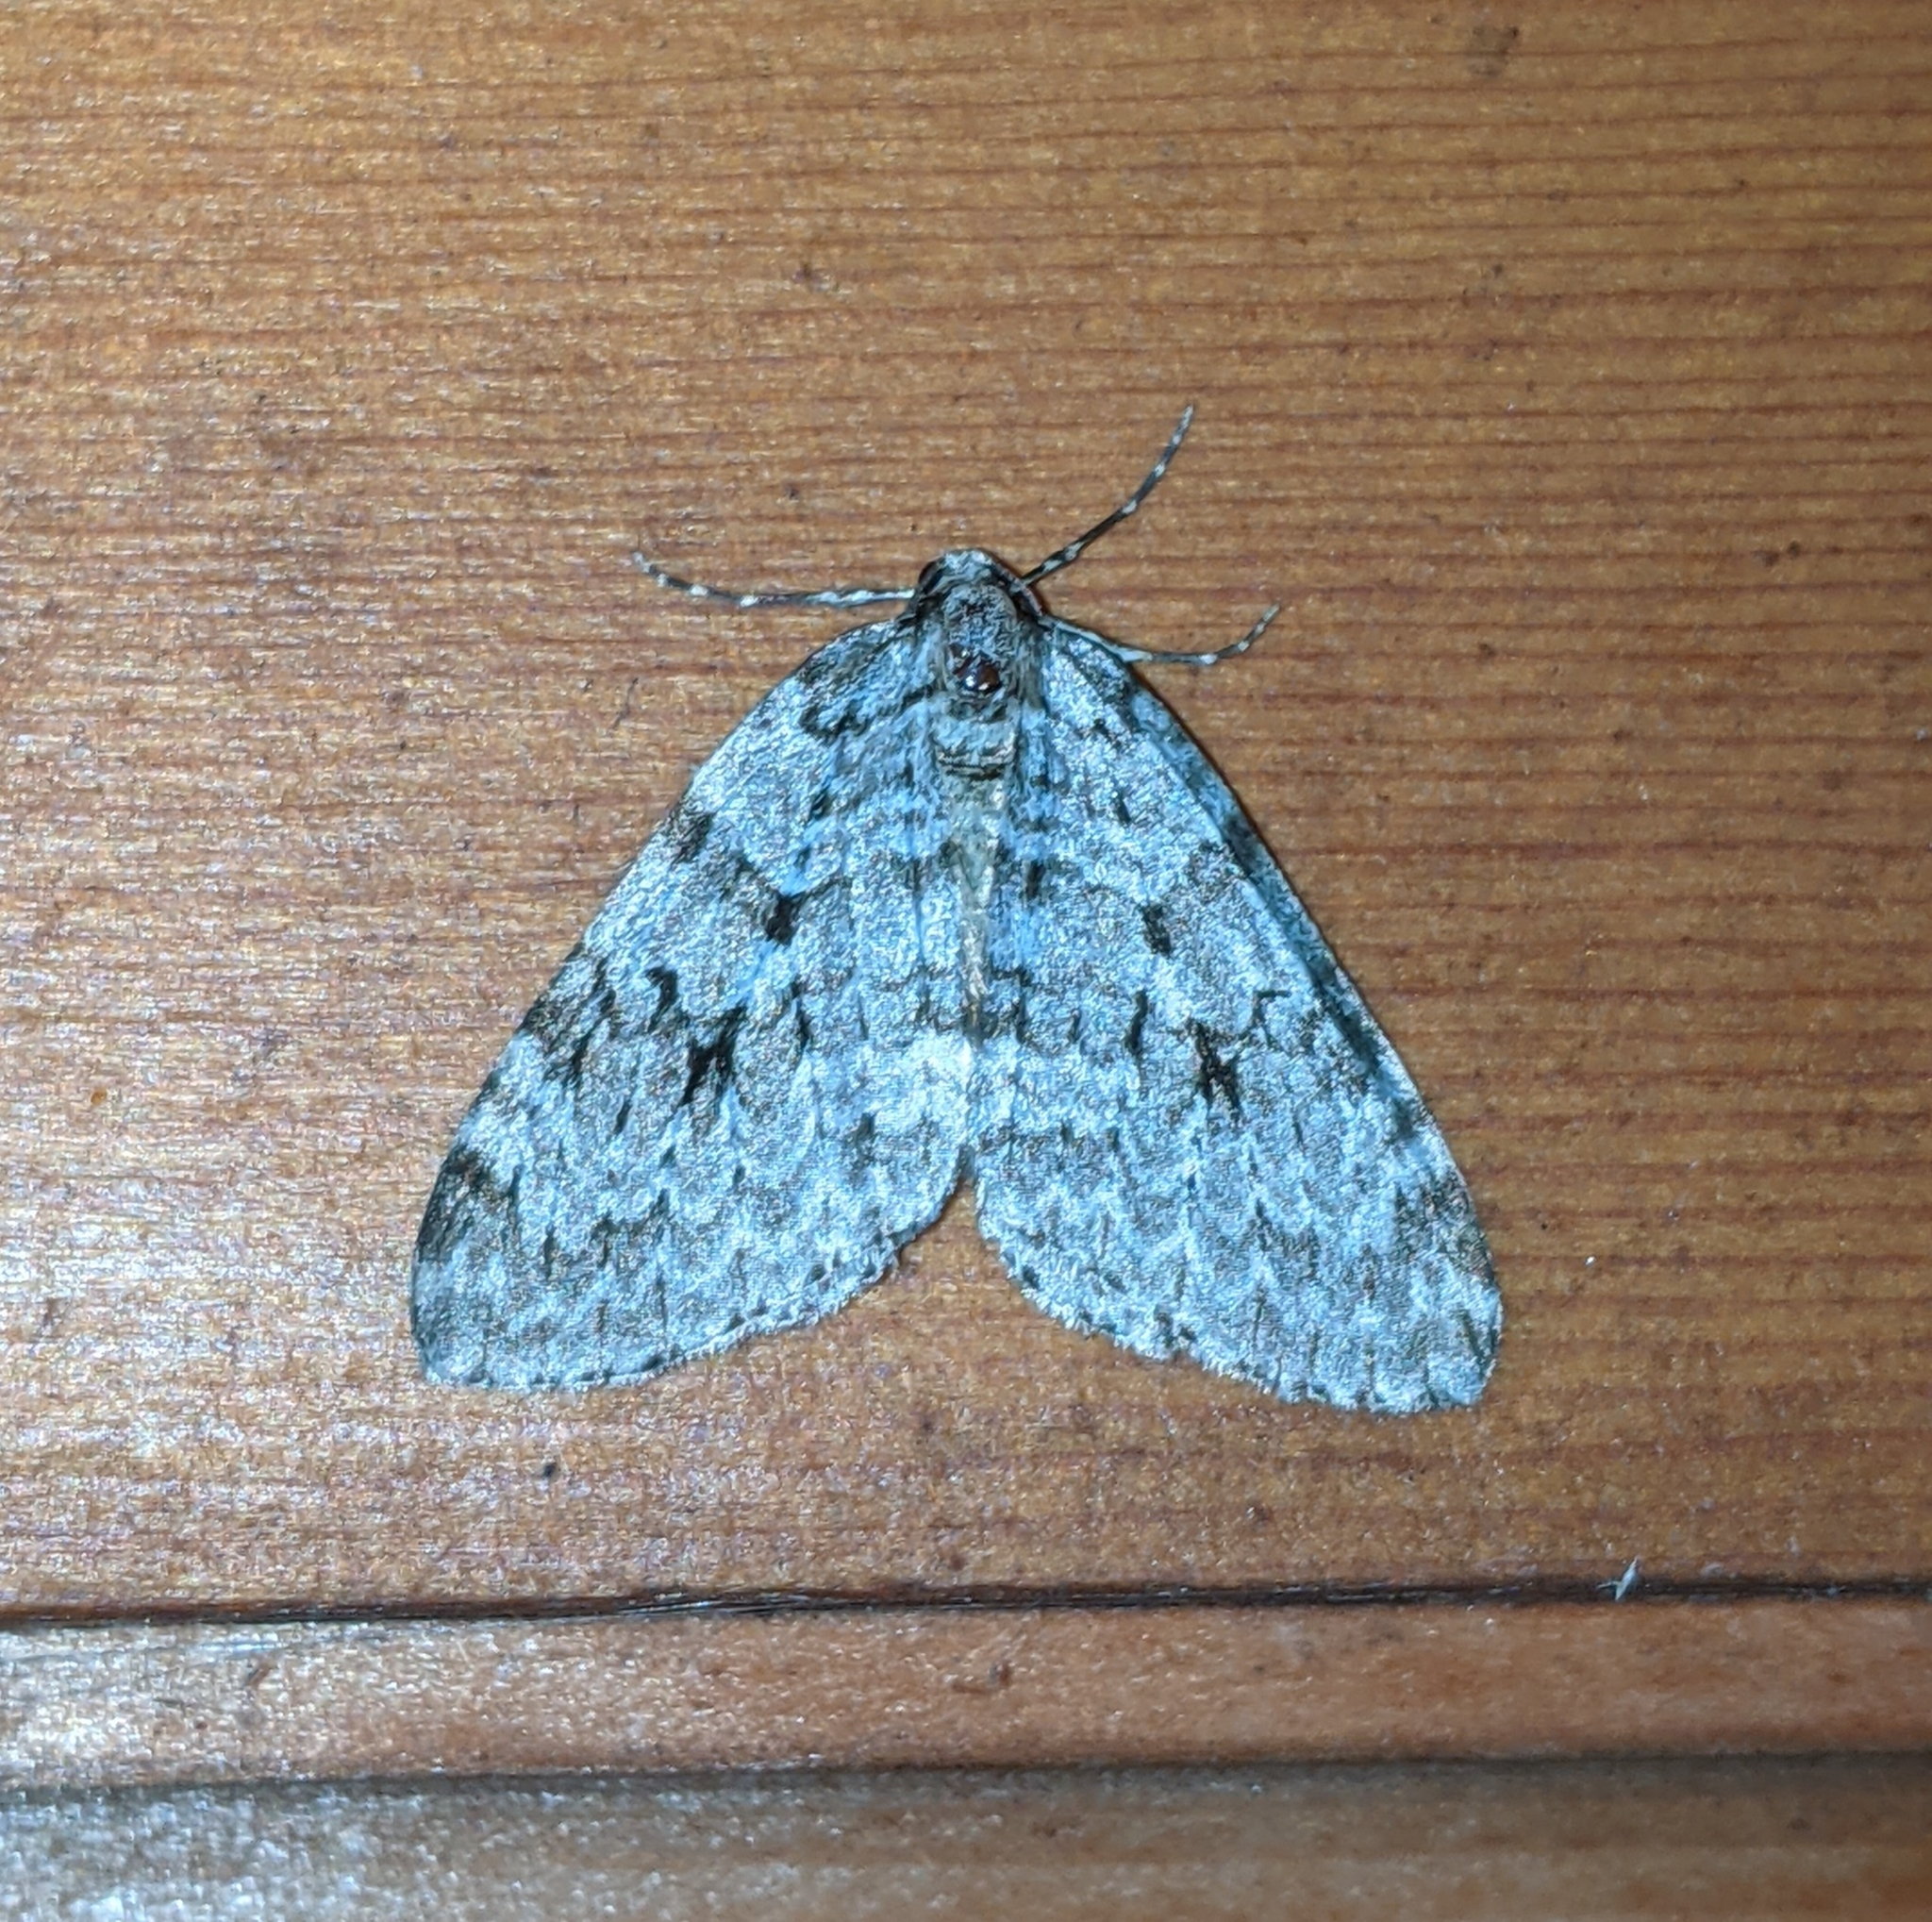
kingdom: Animalia
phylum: Arthropoda
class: Insecta
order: Lepidoptera
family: Geometridae
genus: Epirrita
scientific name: Epirrita autumnata
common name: Autumnal moth
